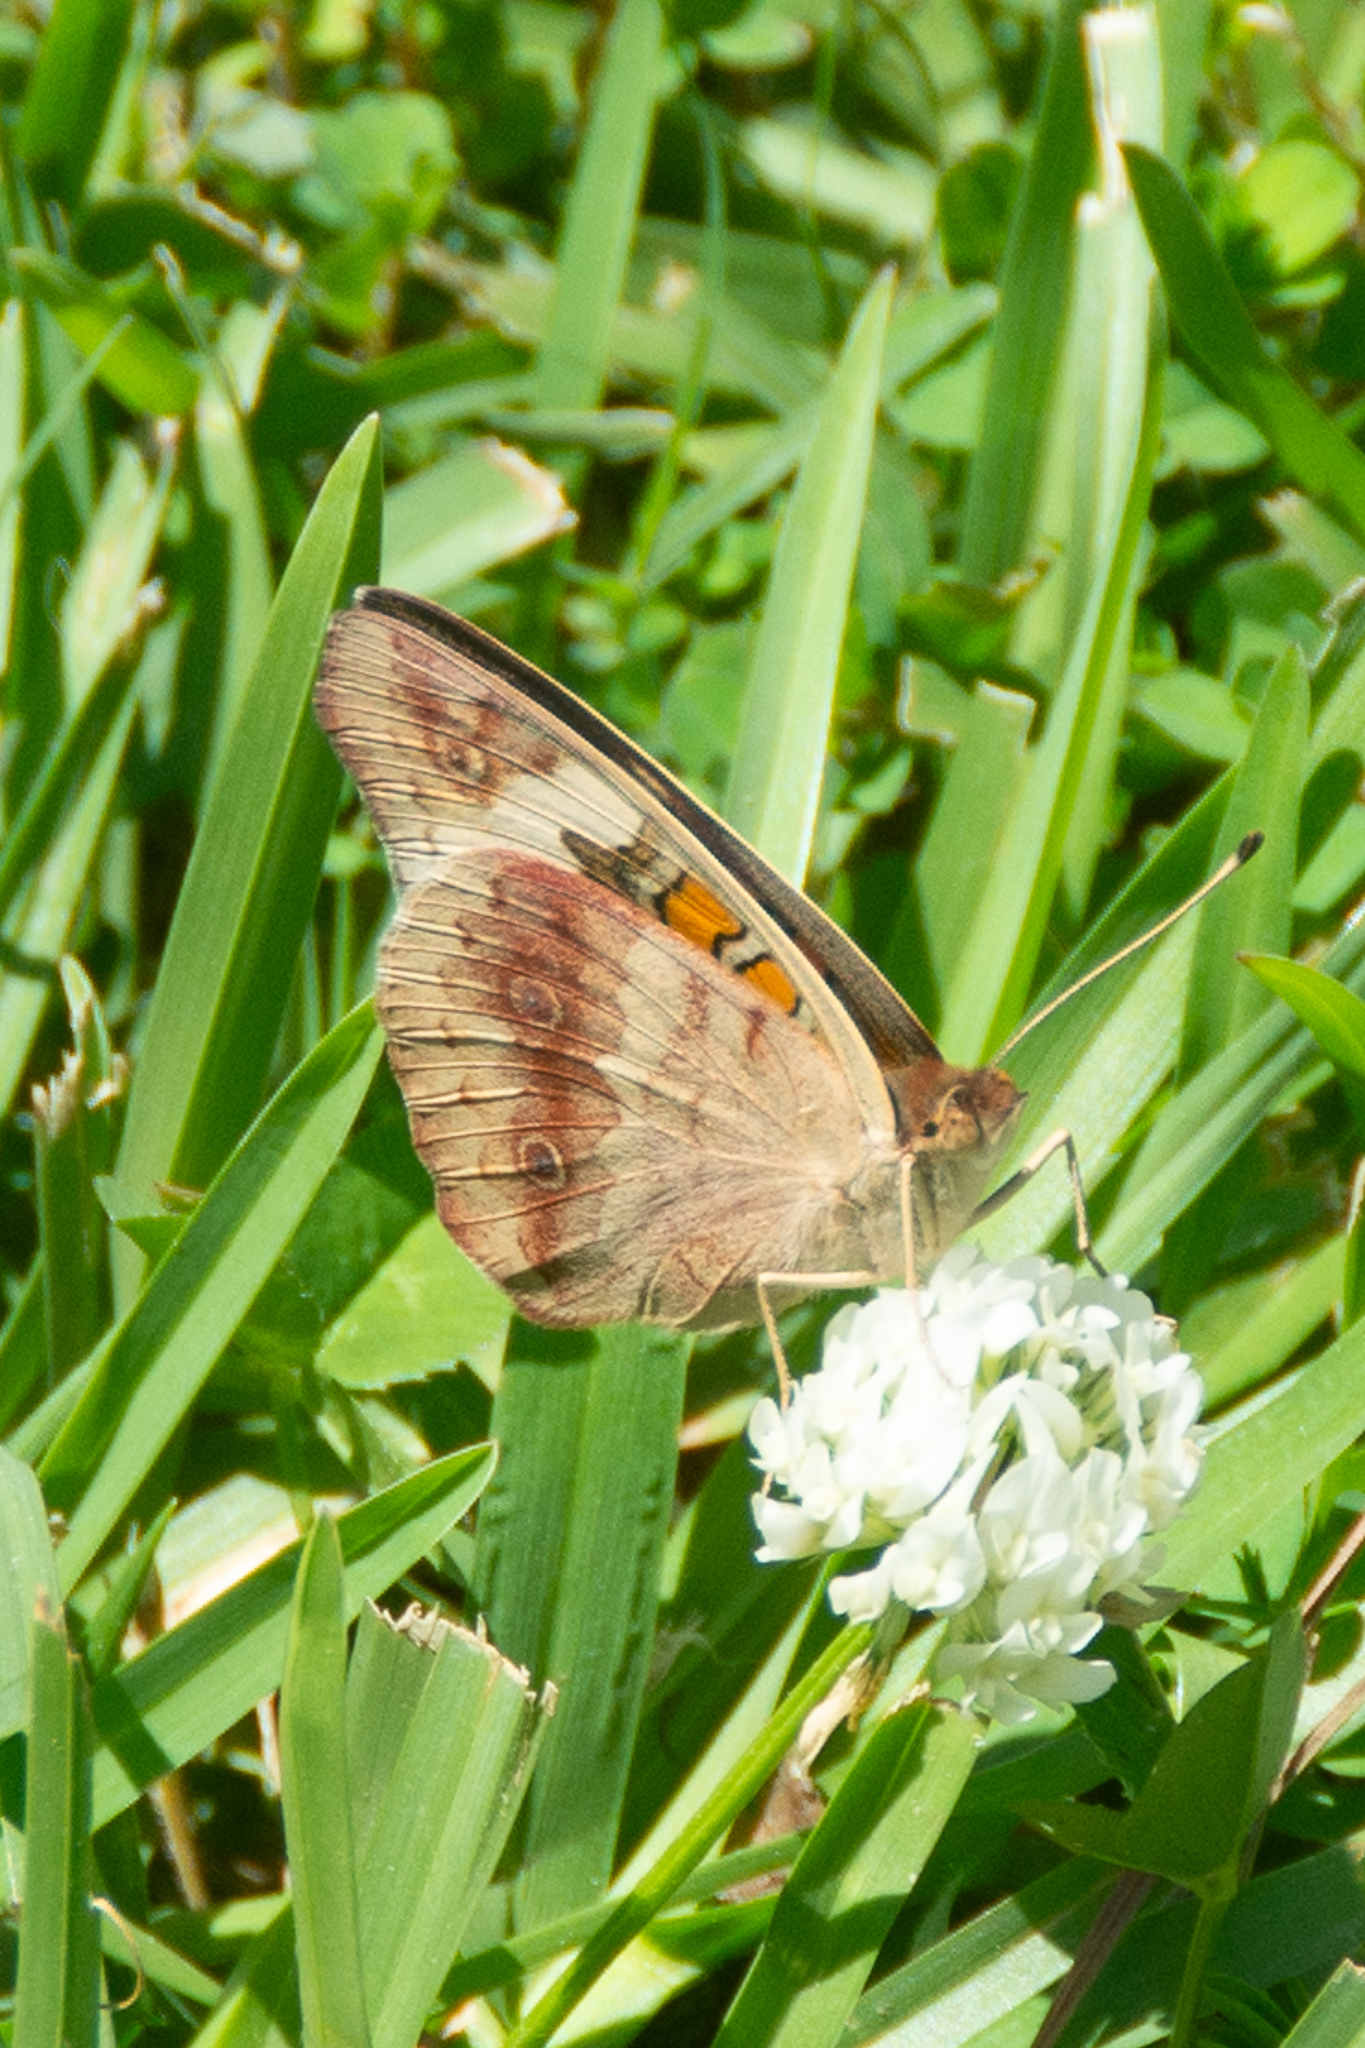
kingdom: Animalia
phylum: Arthropoda
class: Insecta
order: Lepidoptera
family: Nymphalidae
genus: Junonia
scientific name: Junonia coenia
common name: Common buckeye
